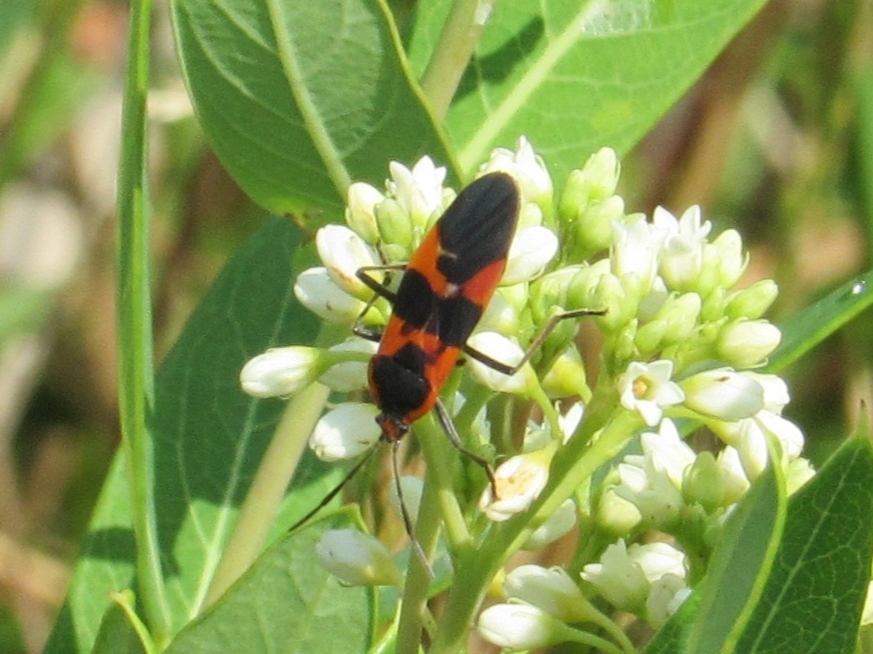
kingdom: Animalia
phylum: Arthropoda
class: Insecta
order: Hemiptera
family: Lygaeidae
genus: Oncopeltus
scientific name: Oncopeltus fasciatus
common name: Large milkweed bug
